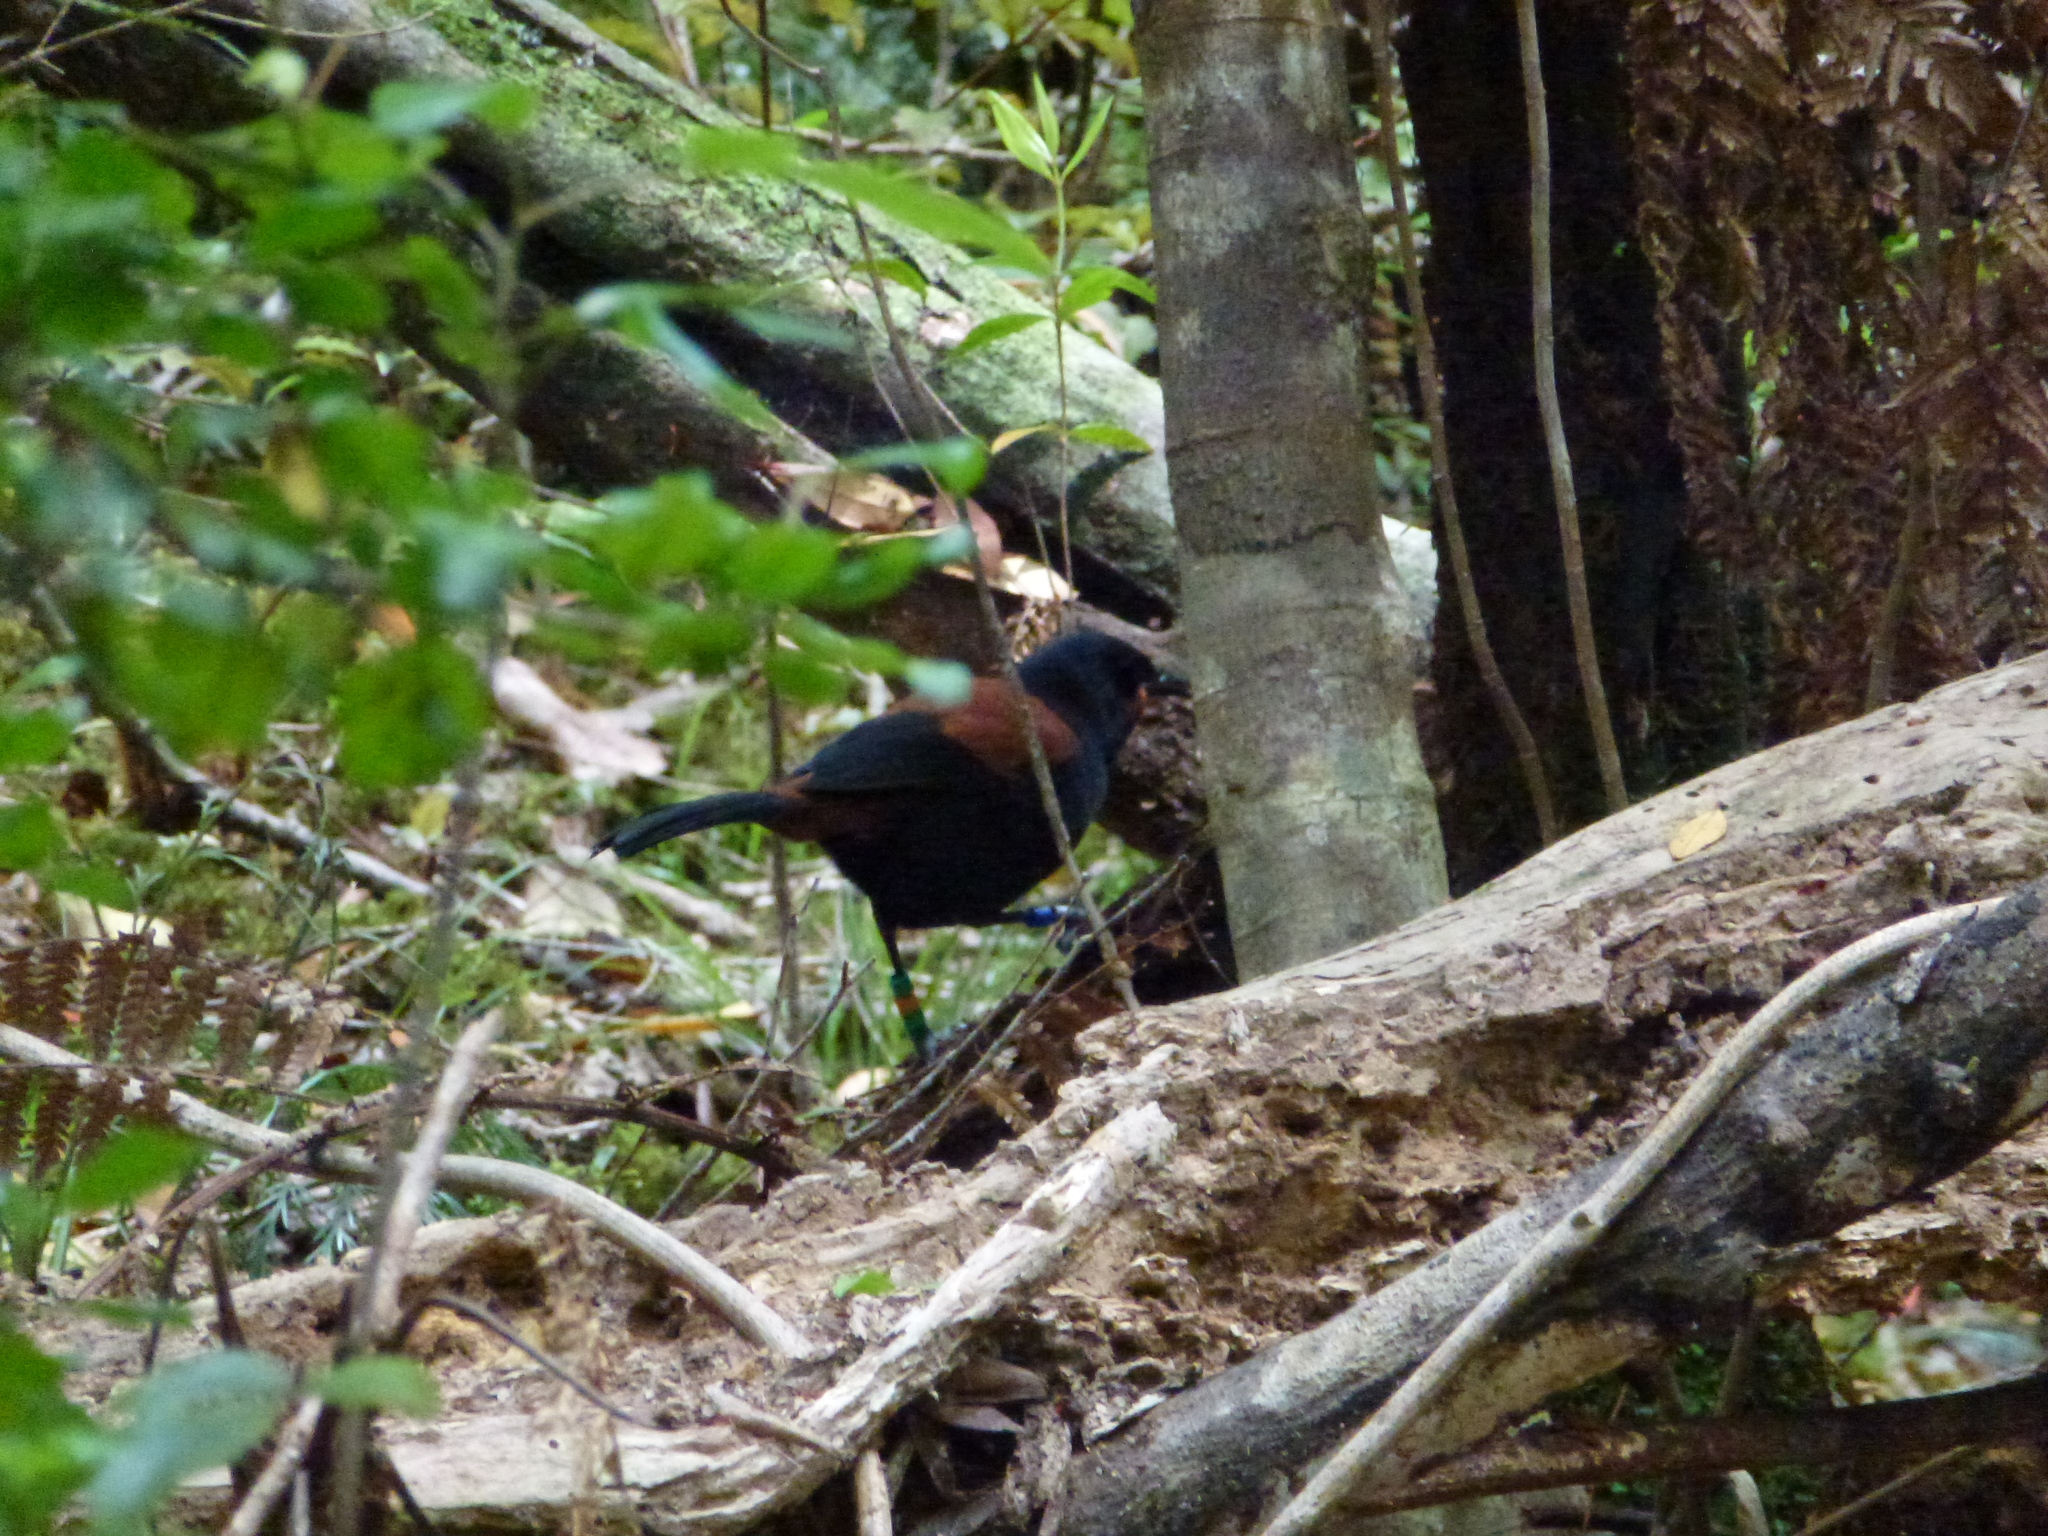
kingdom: Animalia
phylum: Chordata
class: Aves
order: Passeriformes
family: Callaeatidae
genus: Philesturnus
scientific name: Philesturnus carunculatus
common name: South island saddleback
